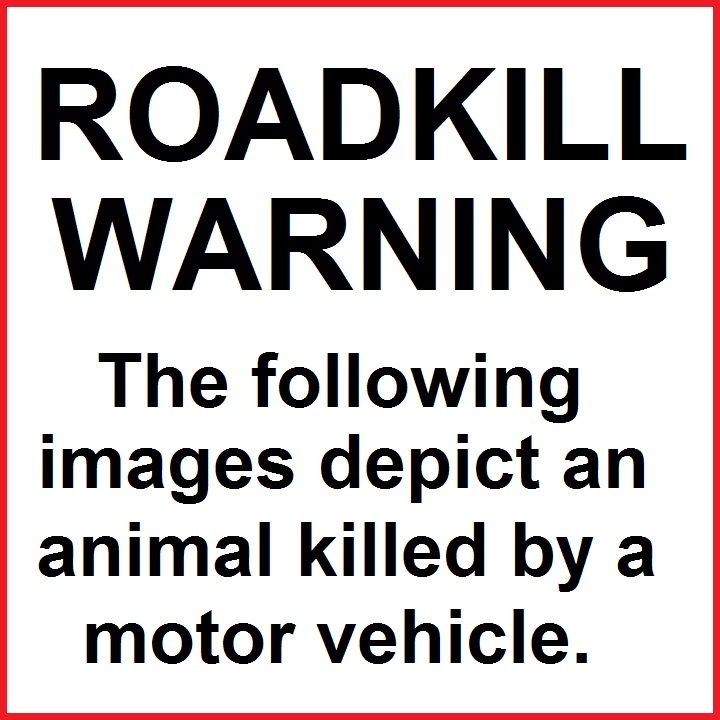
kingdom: Animalia
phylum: Chordata
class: Mammalia
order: Didelphimorphia
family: Didelphidae
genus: Didelphis
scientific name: Didelphis virginiana
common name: Virginia opossum
